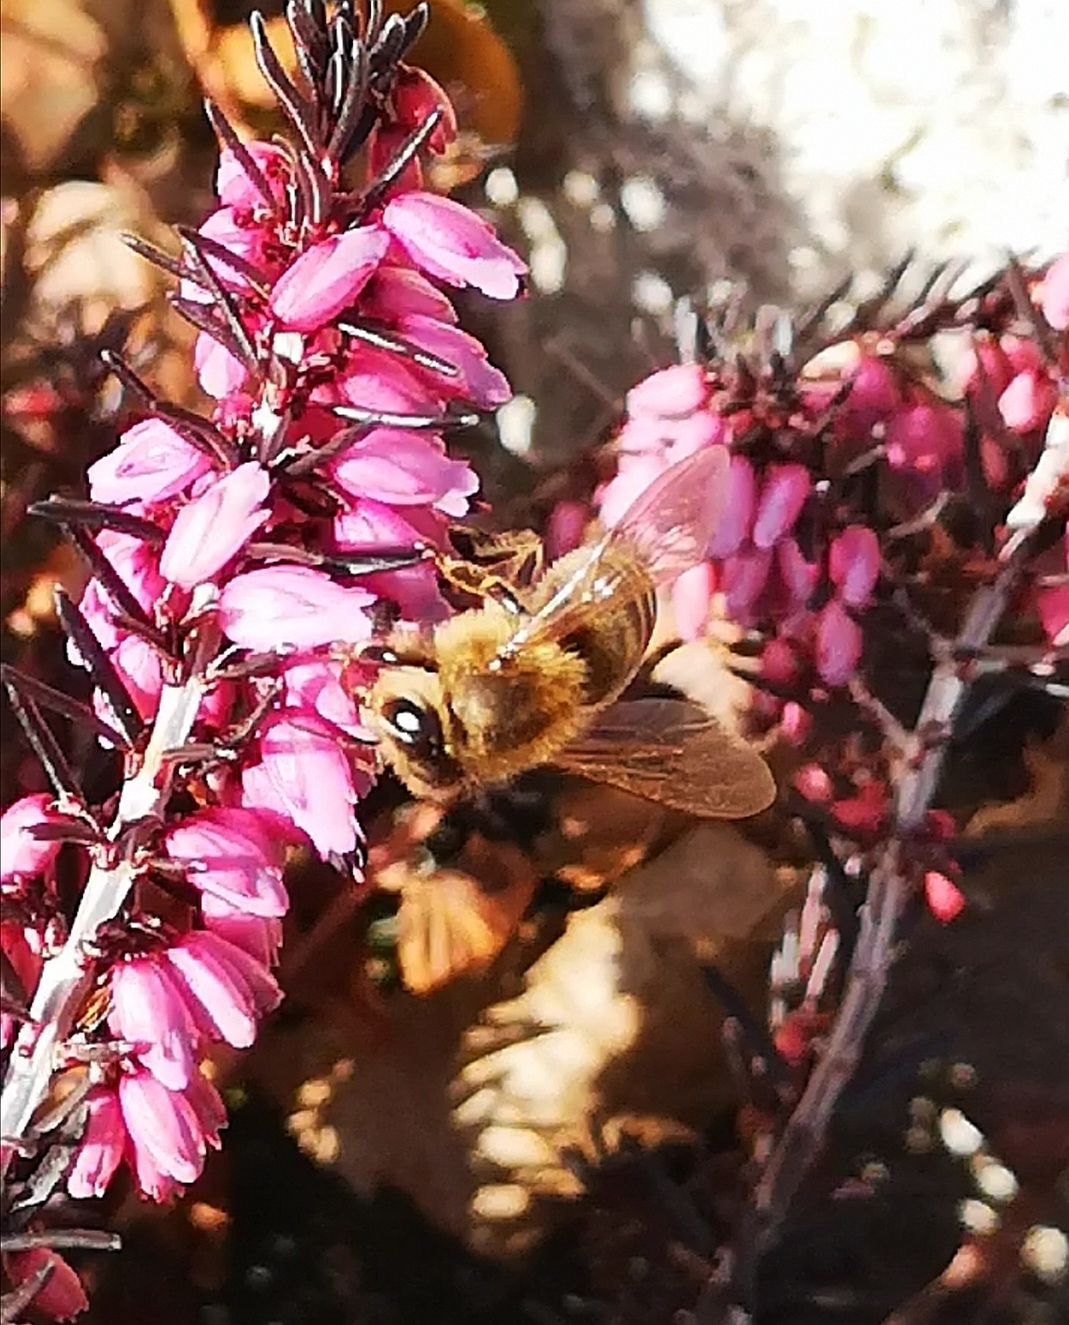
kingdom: Animalia
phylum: Arthropoda
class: Insecta
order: Hymenoptera
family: Apidae
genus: Apis
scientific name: Apis mellifera
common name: Honey bee
